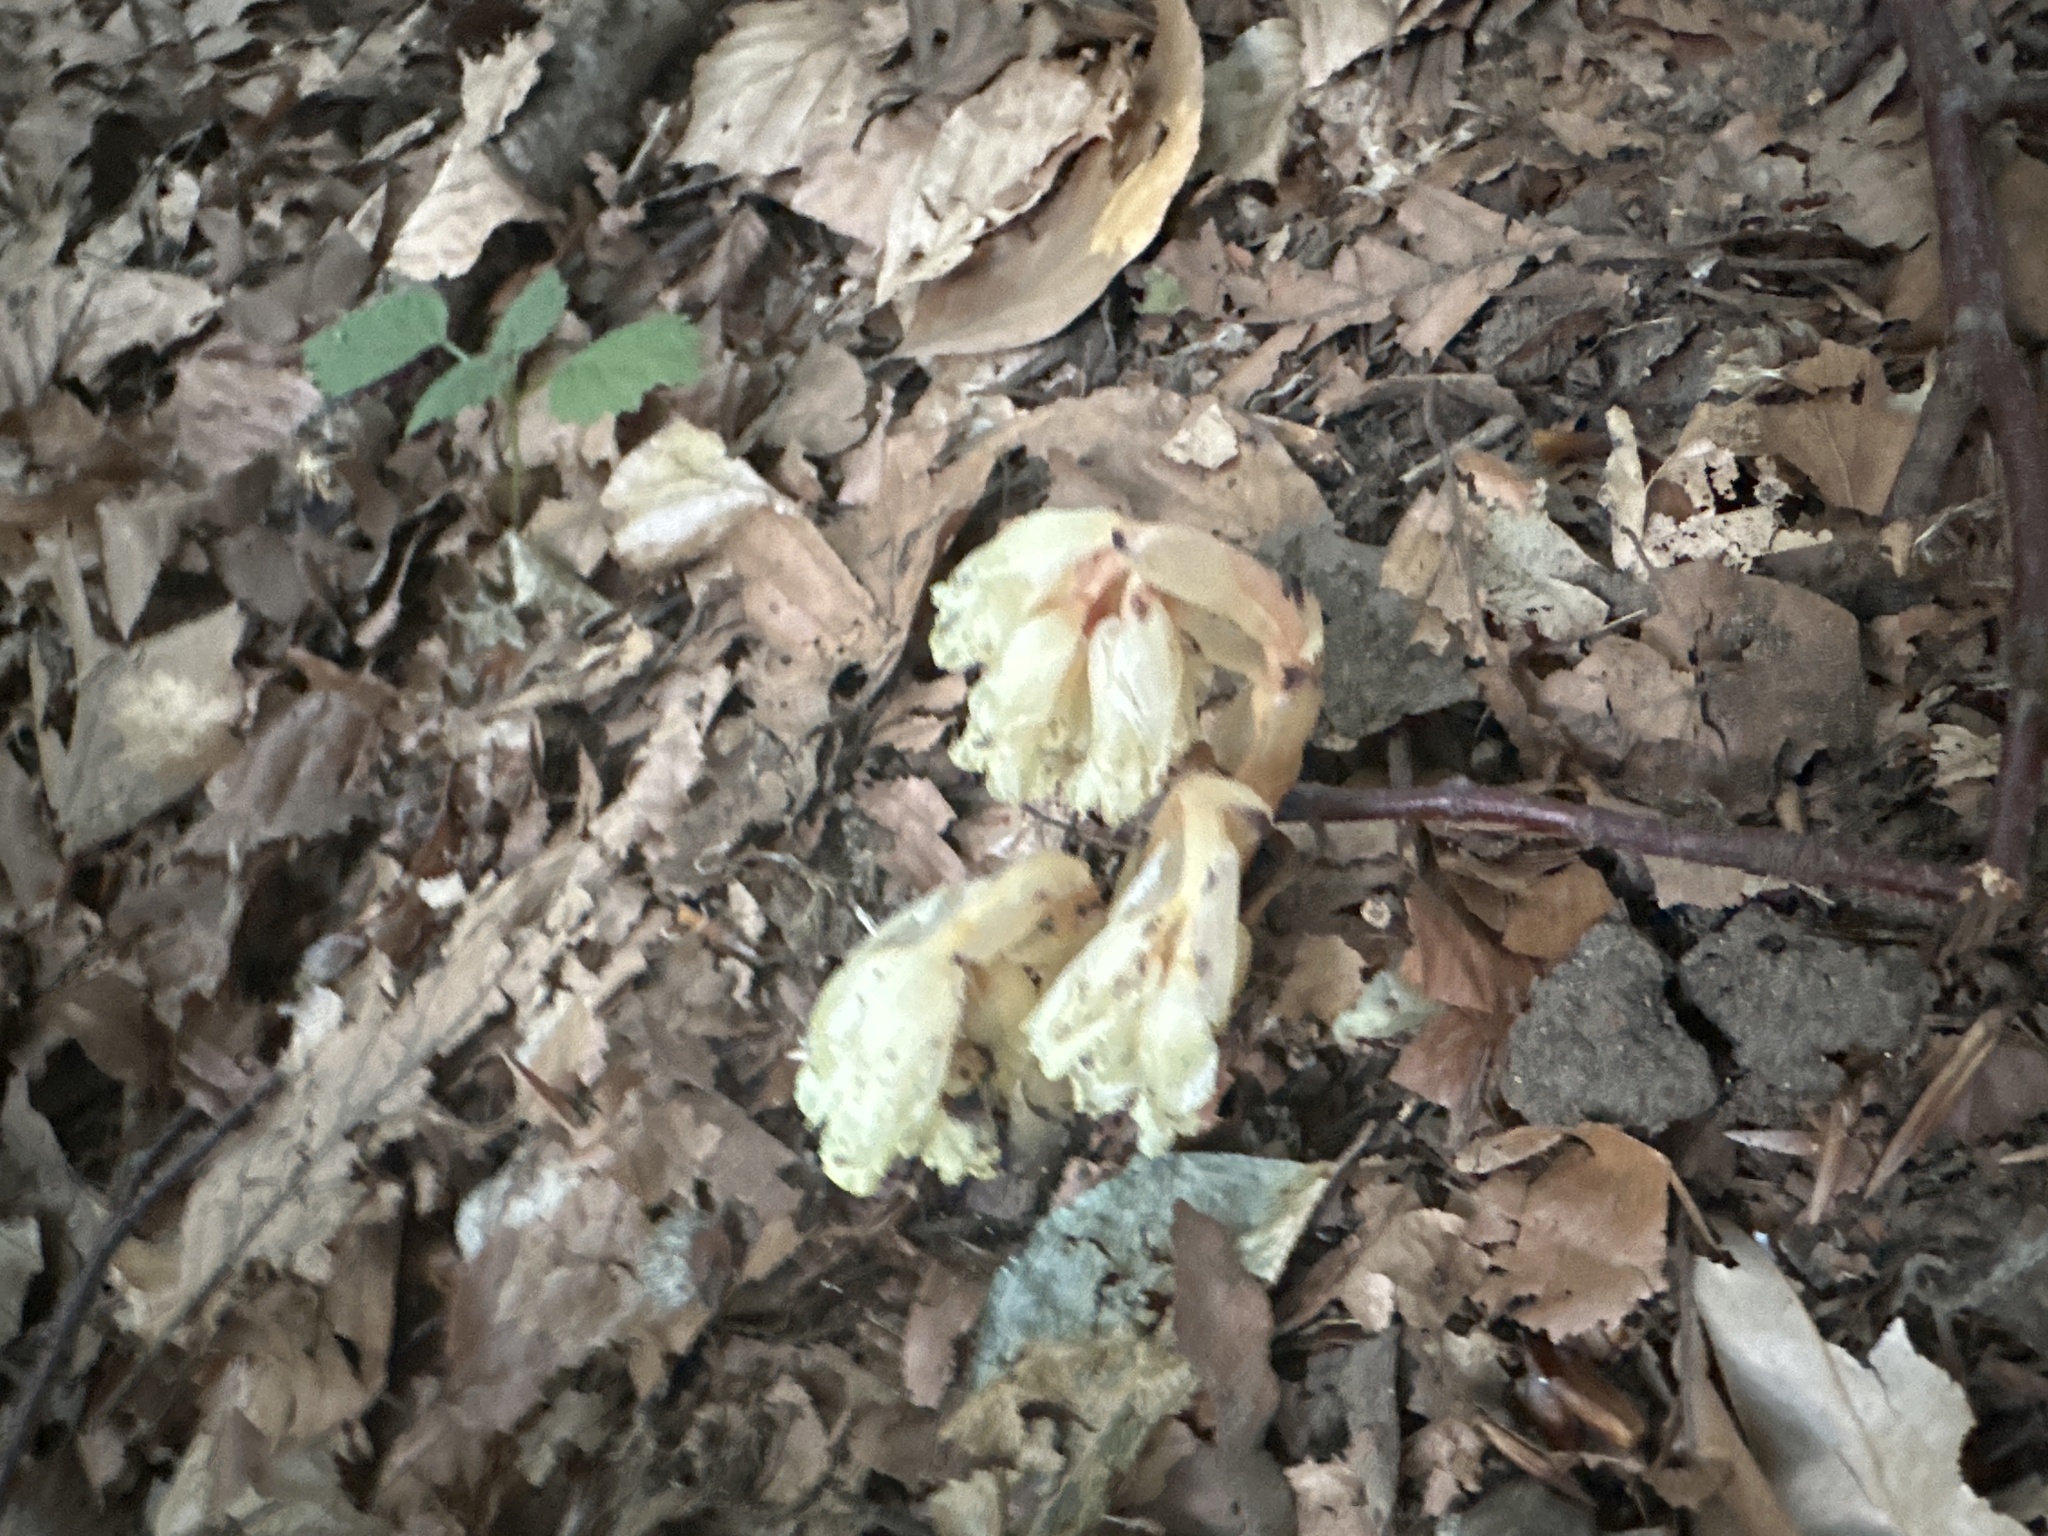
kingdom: Plantae
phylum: Tracheophyta
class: Magnoliopsida
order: Ericales
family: Ericaceae
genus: Hypopitys
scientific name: Hypopitys monotropa
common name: Yellow bird's-nest
